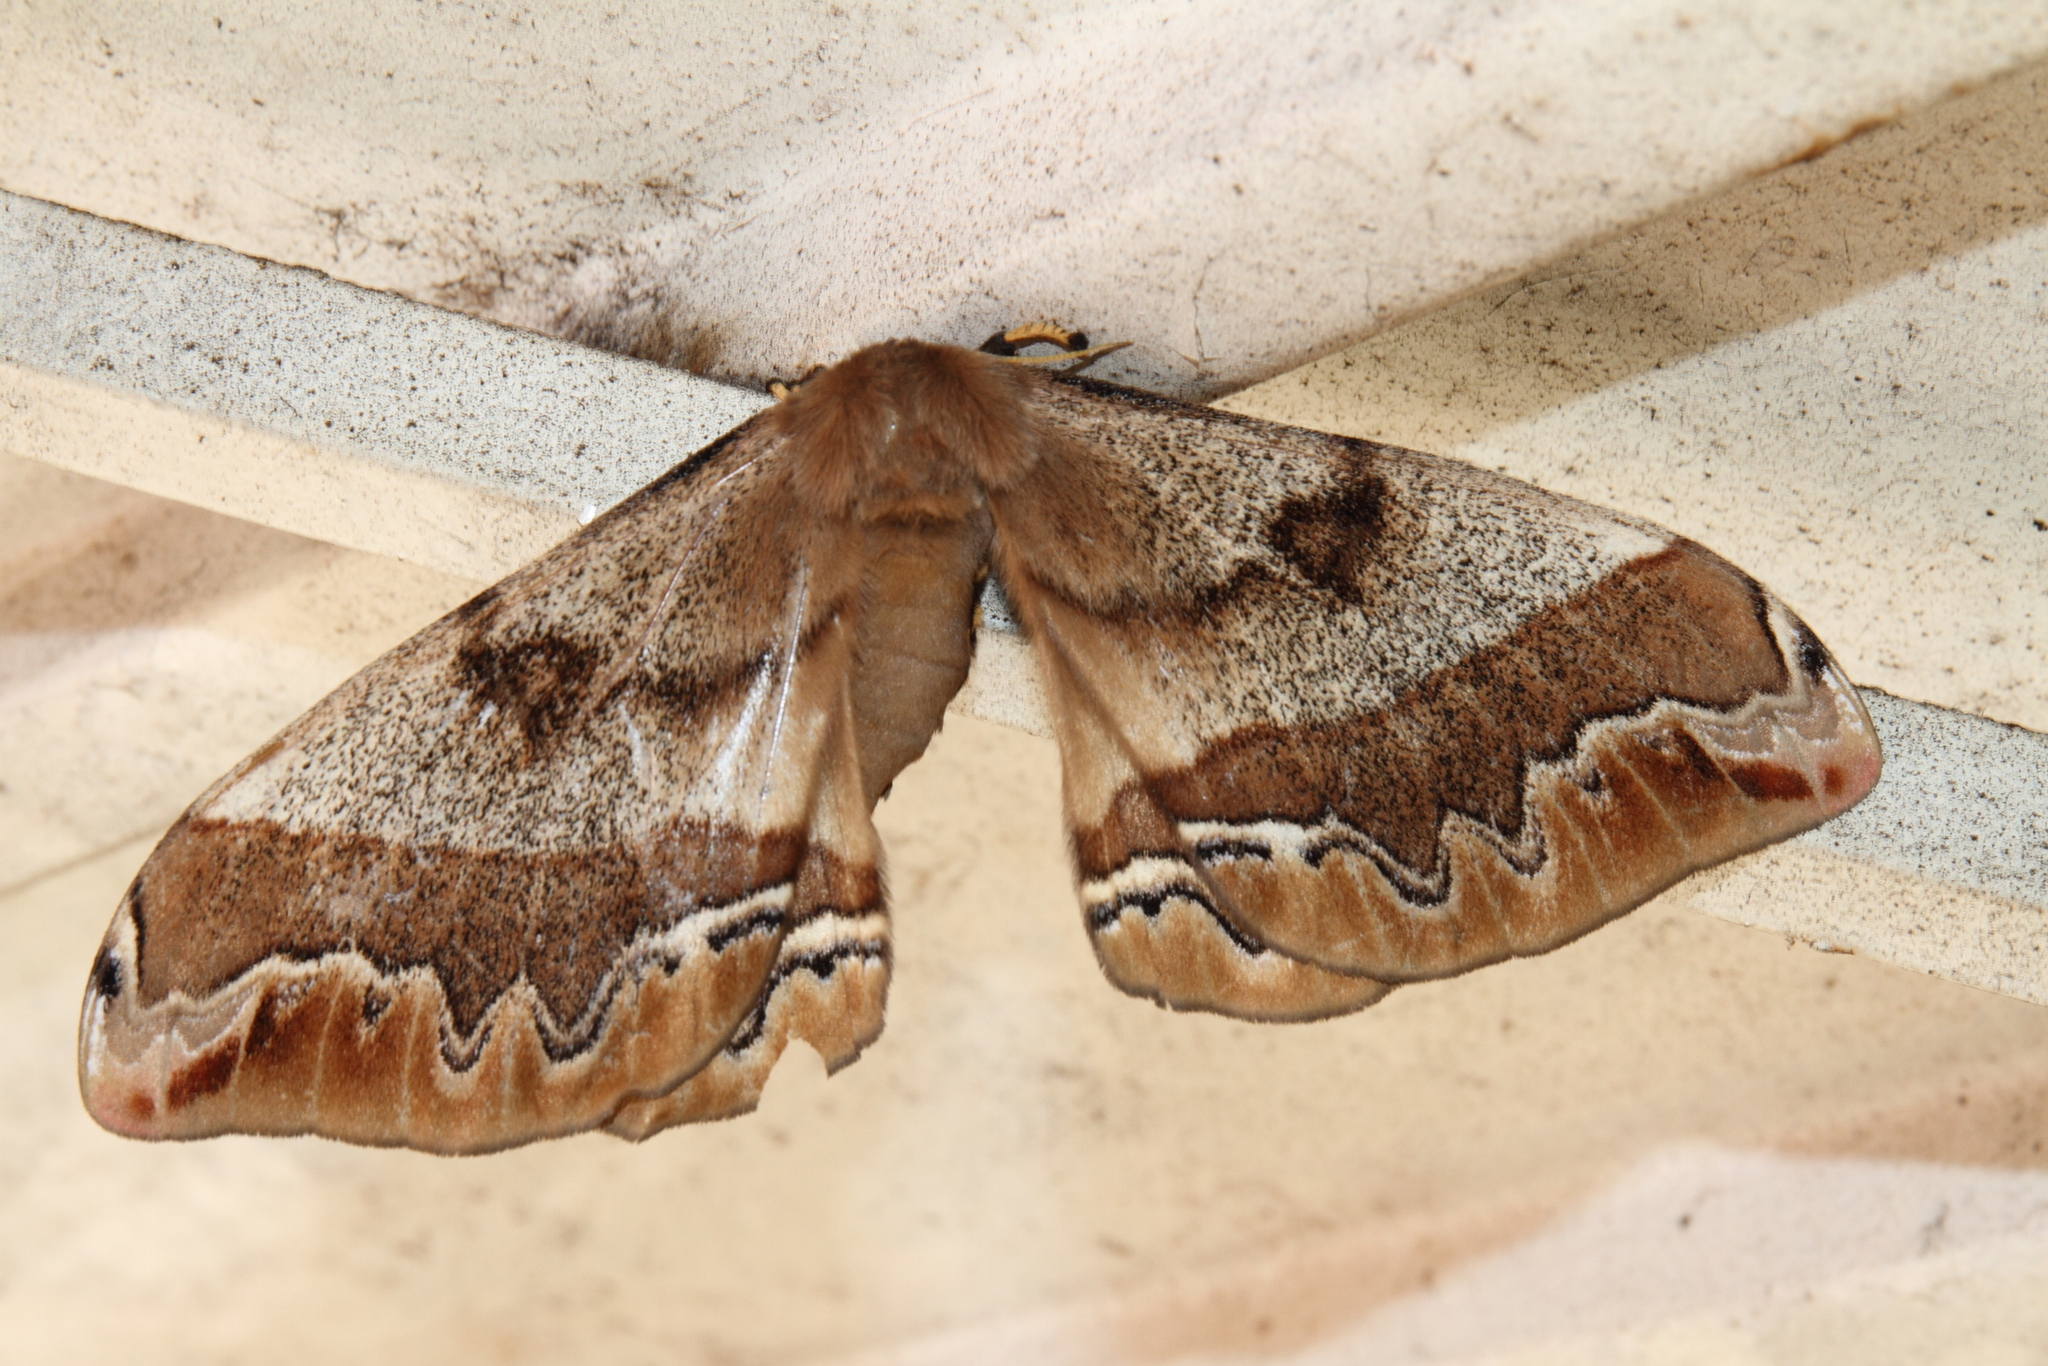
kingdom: Animalia
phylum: Arthropoda
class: Insecta
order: Lepidoptera
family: Saturniidae
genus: Arsenura
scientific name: Arsenura polyodonta
